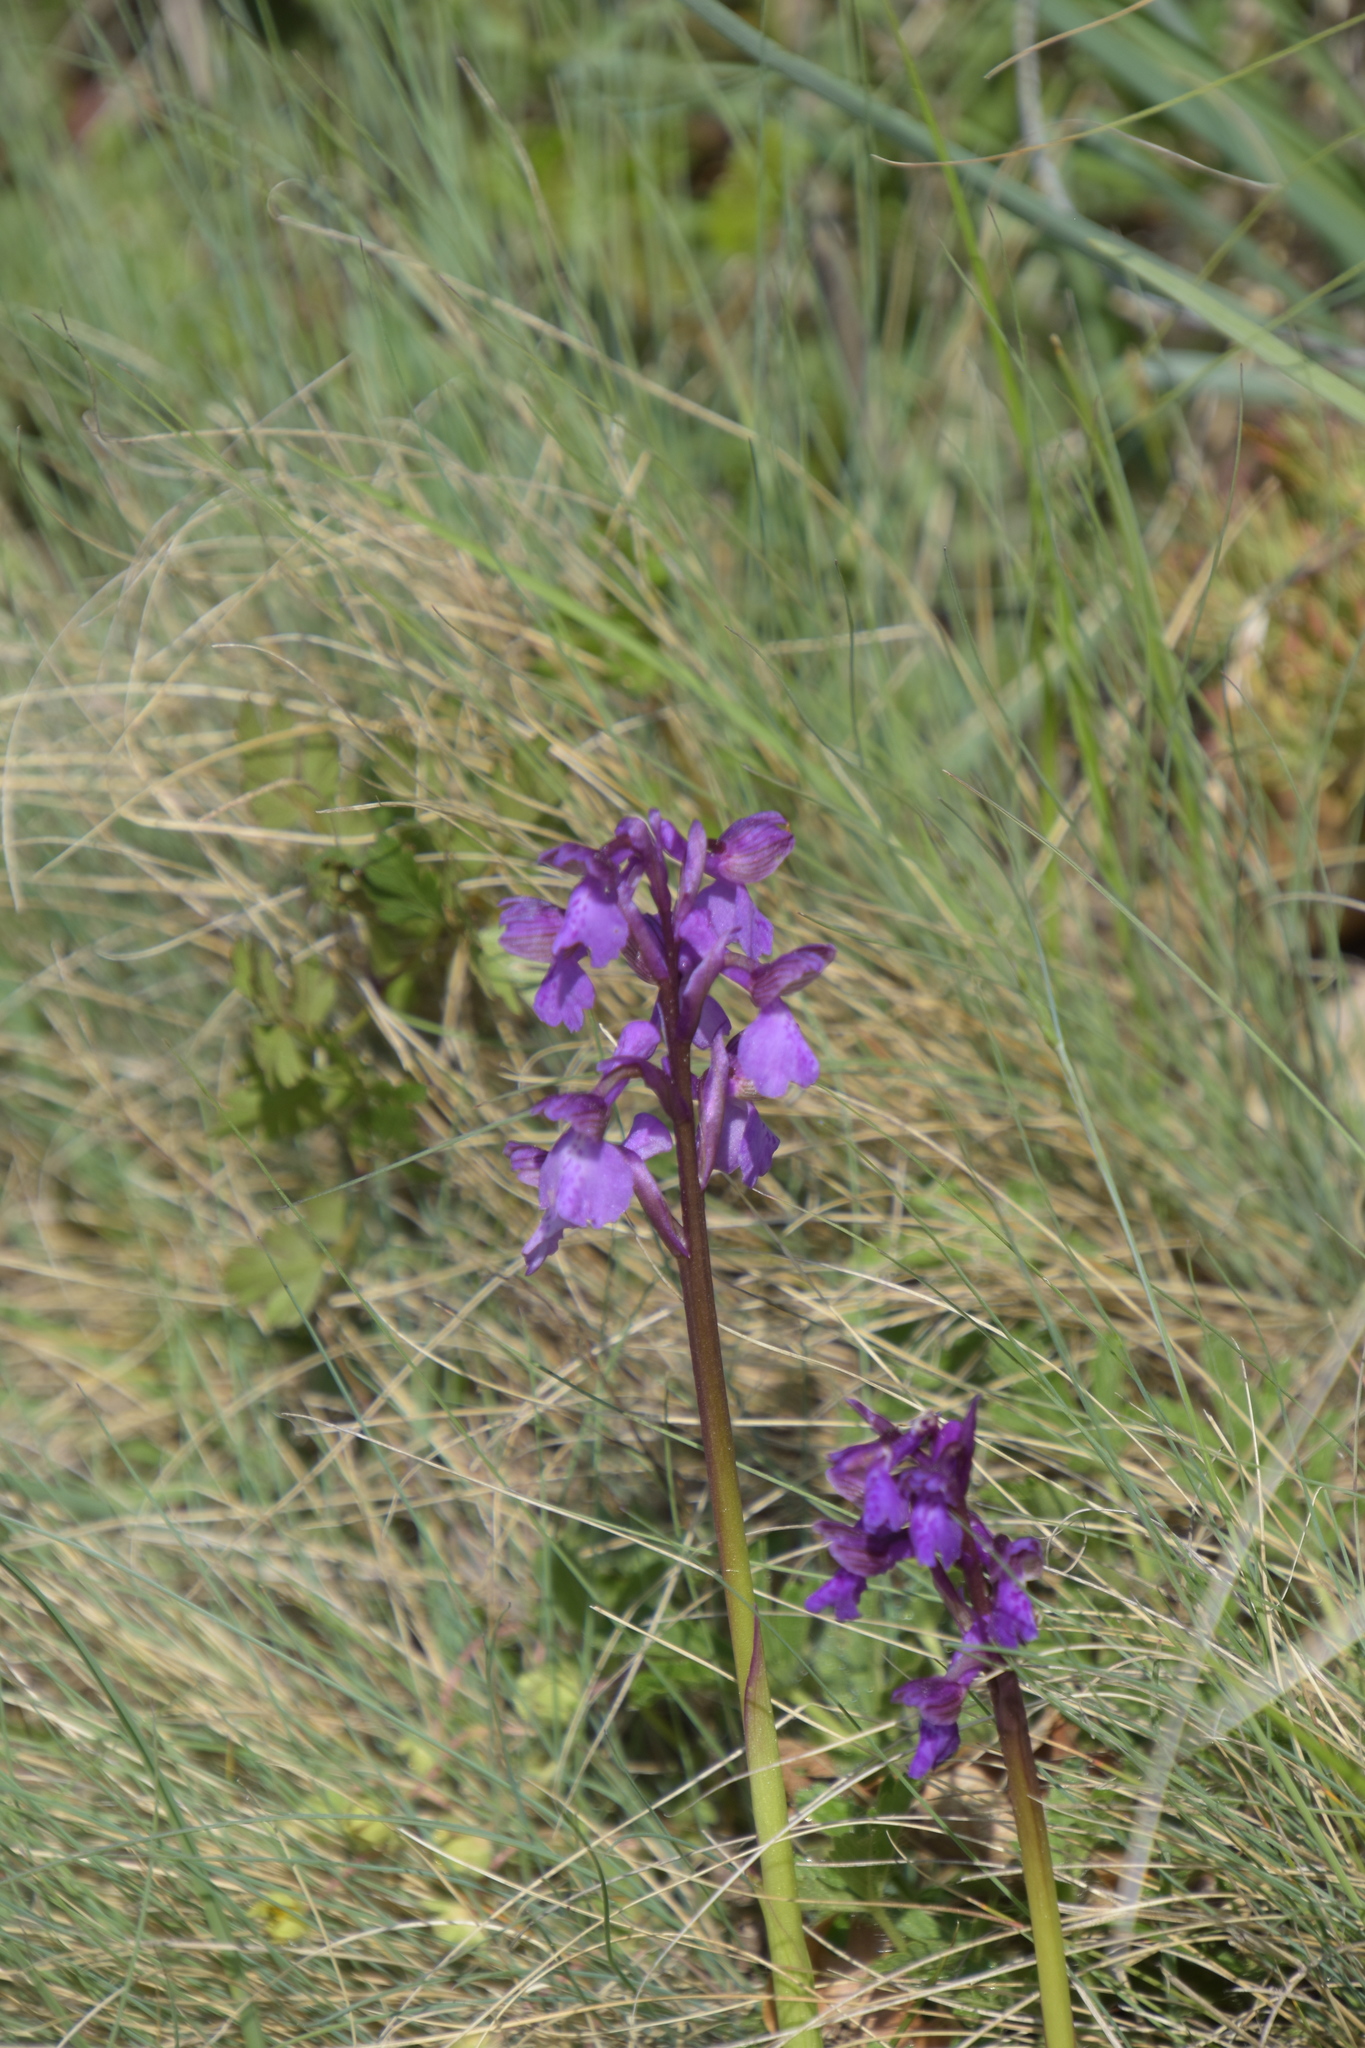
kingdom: Plantae
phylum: Tracheophyta
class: Liliopsida
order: Asparagales
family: Orchidaceae
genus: Anacamptis
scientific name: Anacamptis morio
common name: Green-winged orchid
